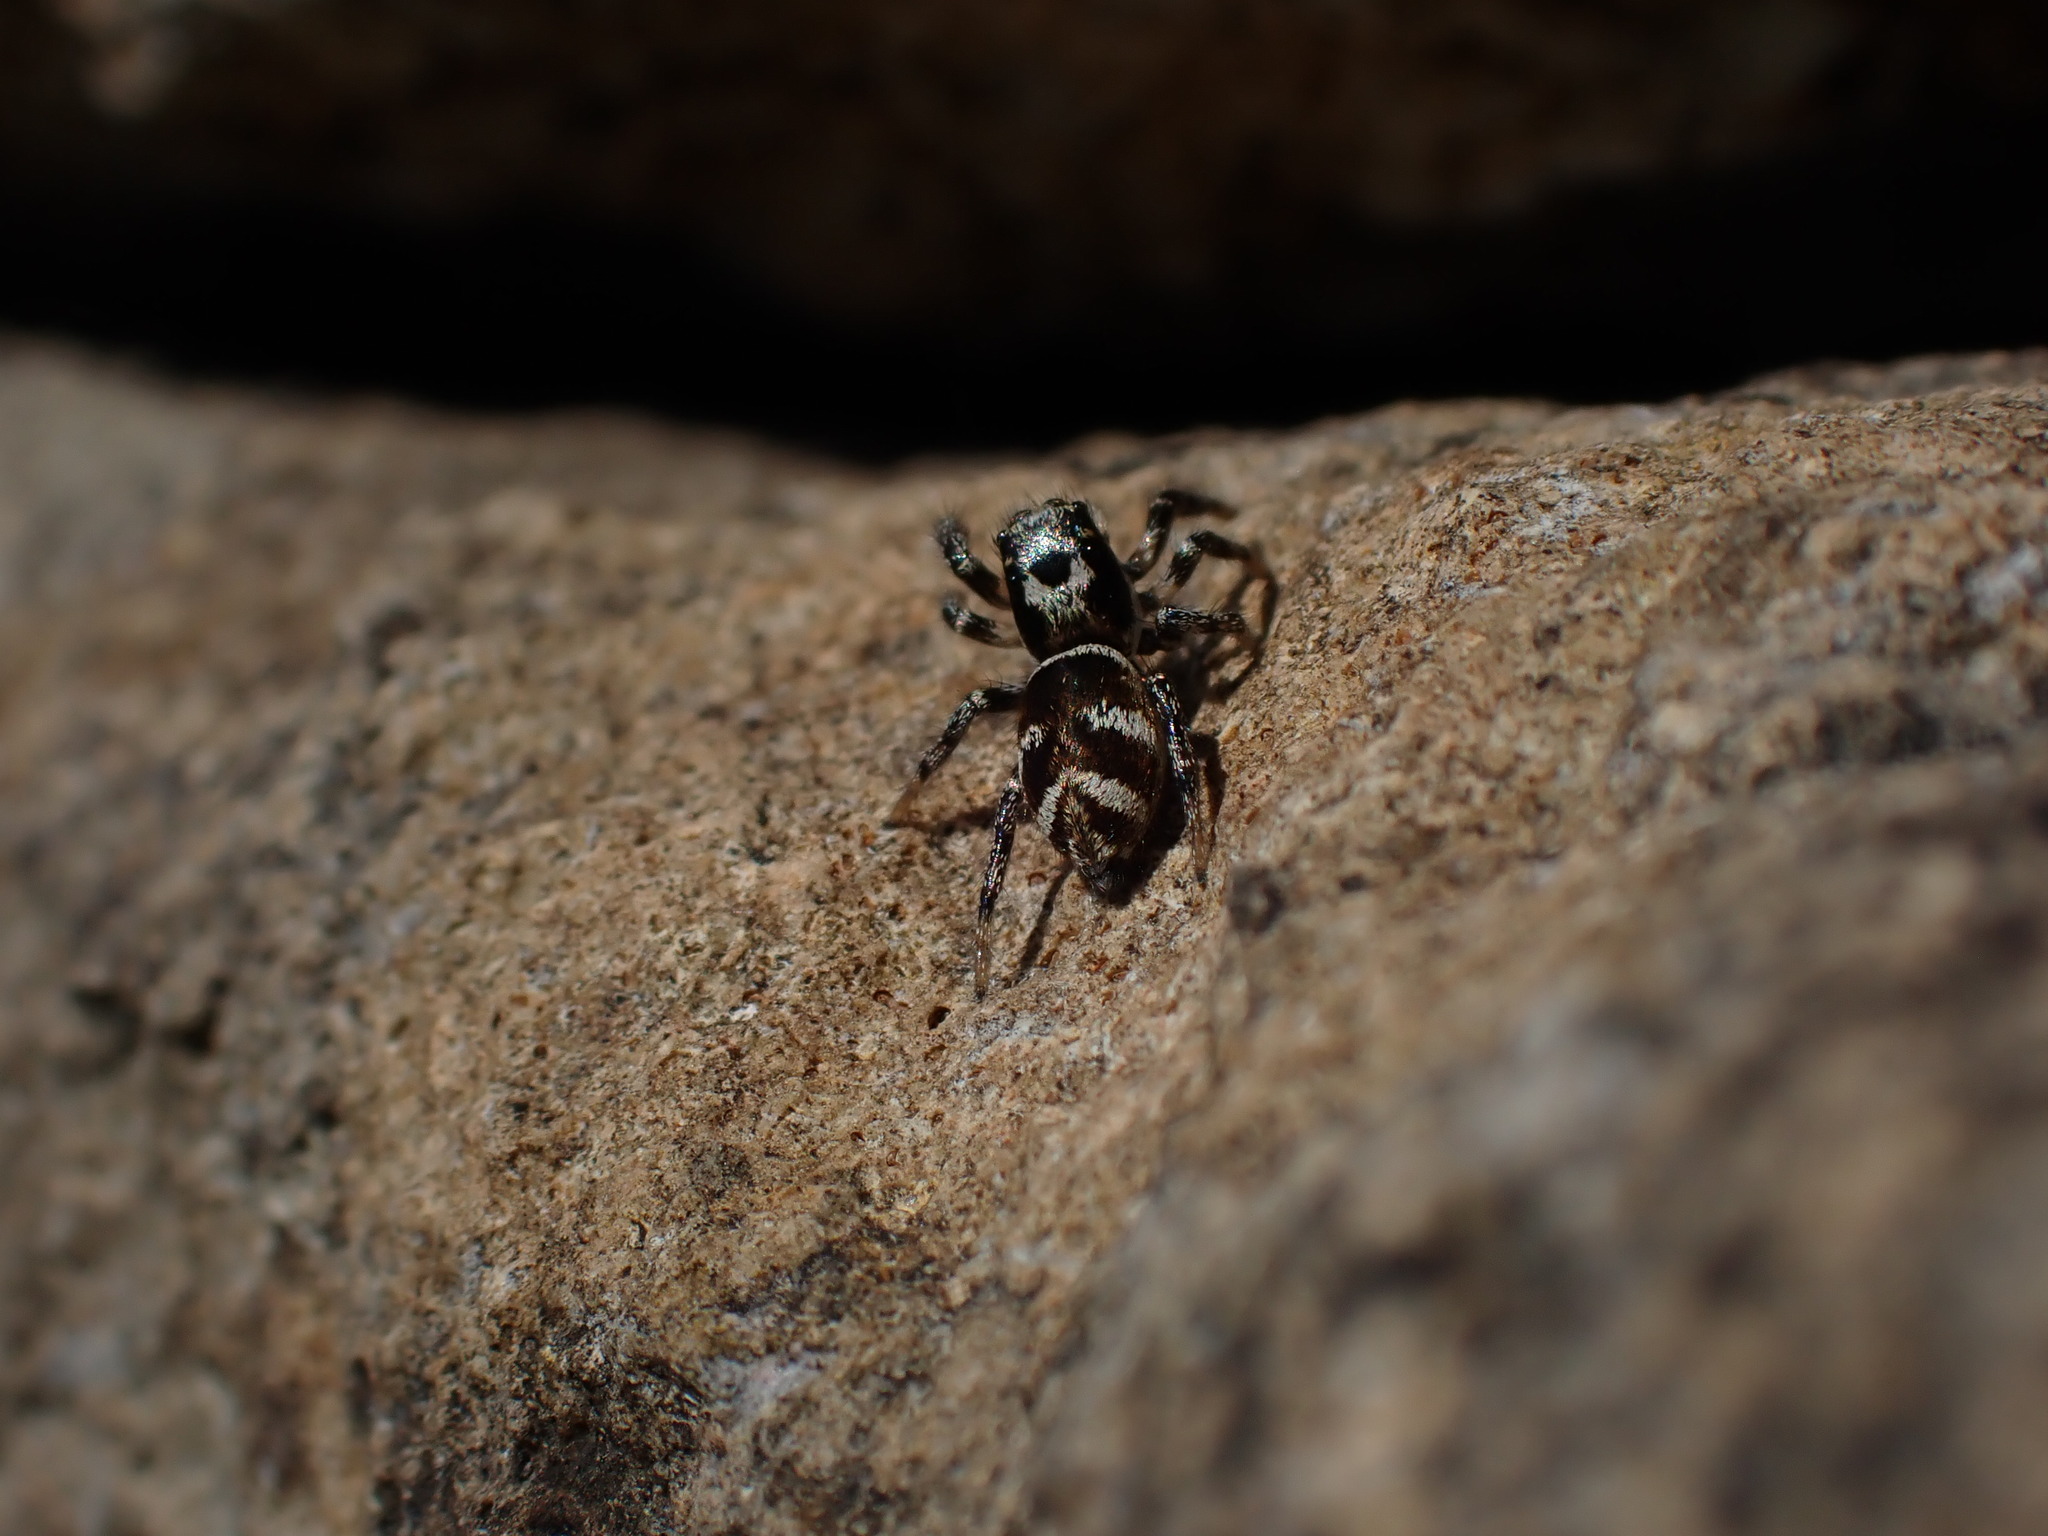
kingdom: Animalia
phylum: Arthropoda
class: Arachnida
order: Araneae
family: Salticidae
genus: Salticus
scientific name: Salticus scenicus
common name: Zebra jumper
